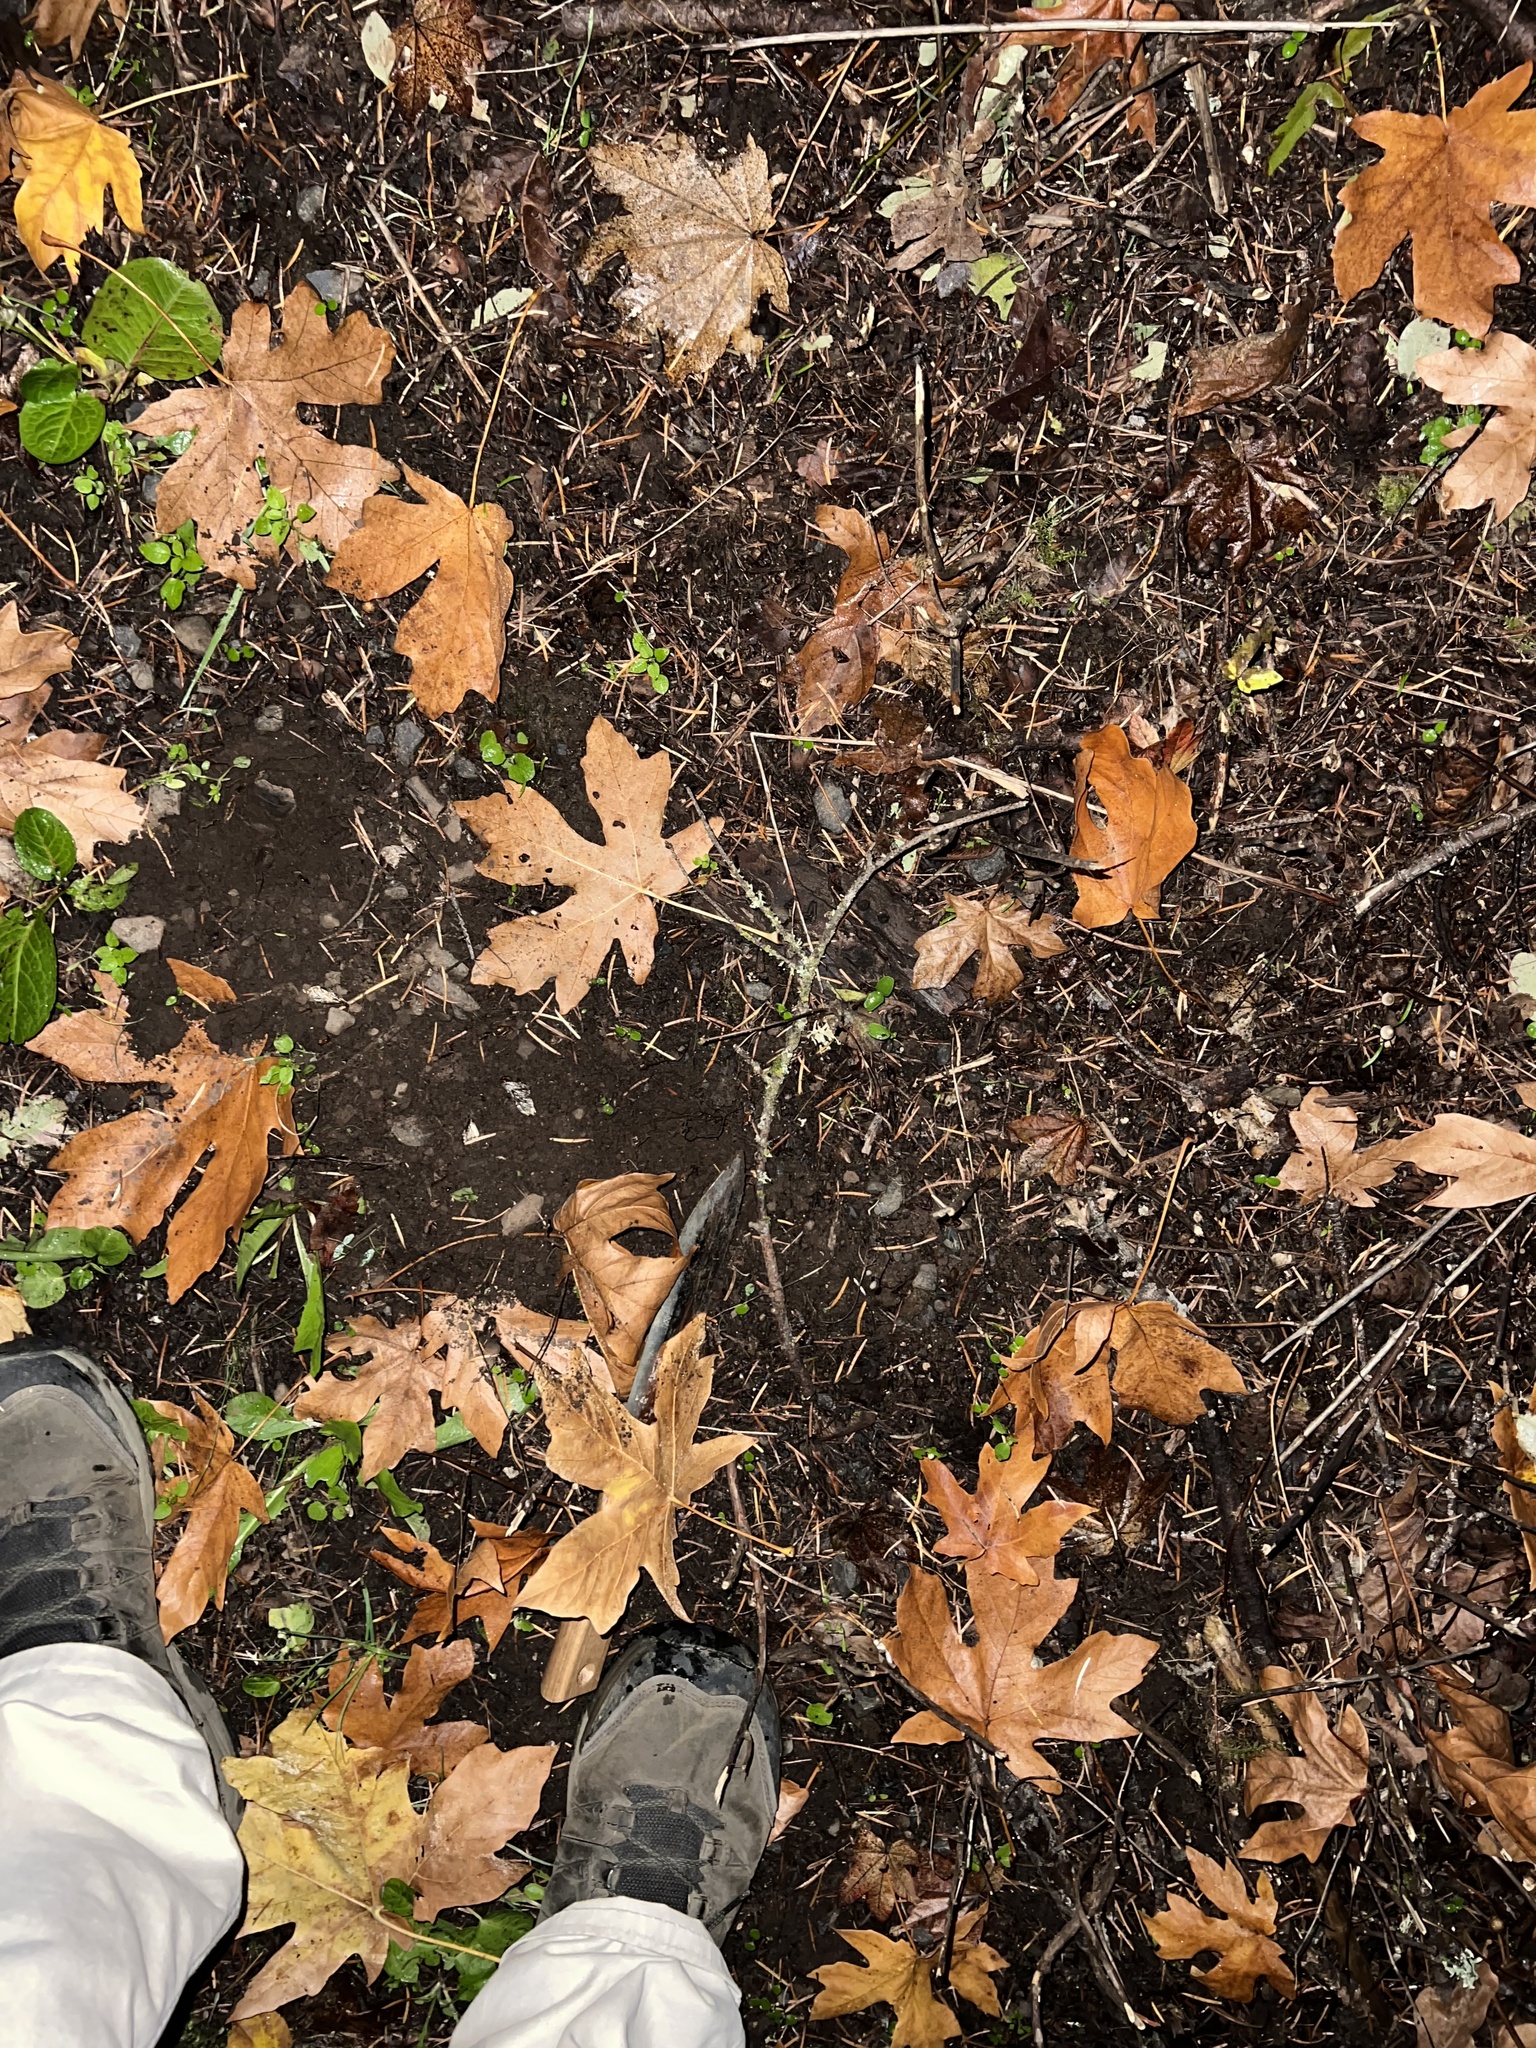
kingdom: Animalia
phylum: Arthropoda
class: Insecta
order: Coleoptera
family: Carabidae
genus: Pterostichus
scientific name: Pterostichus algidus
